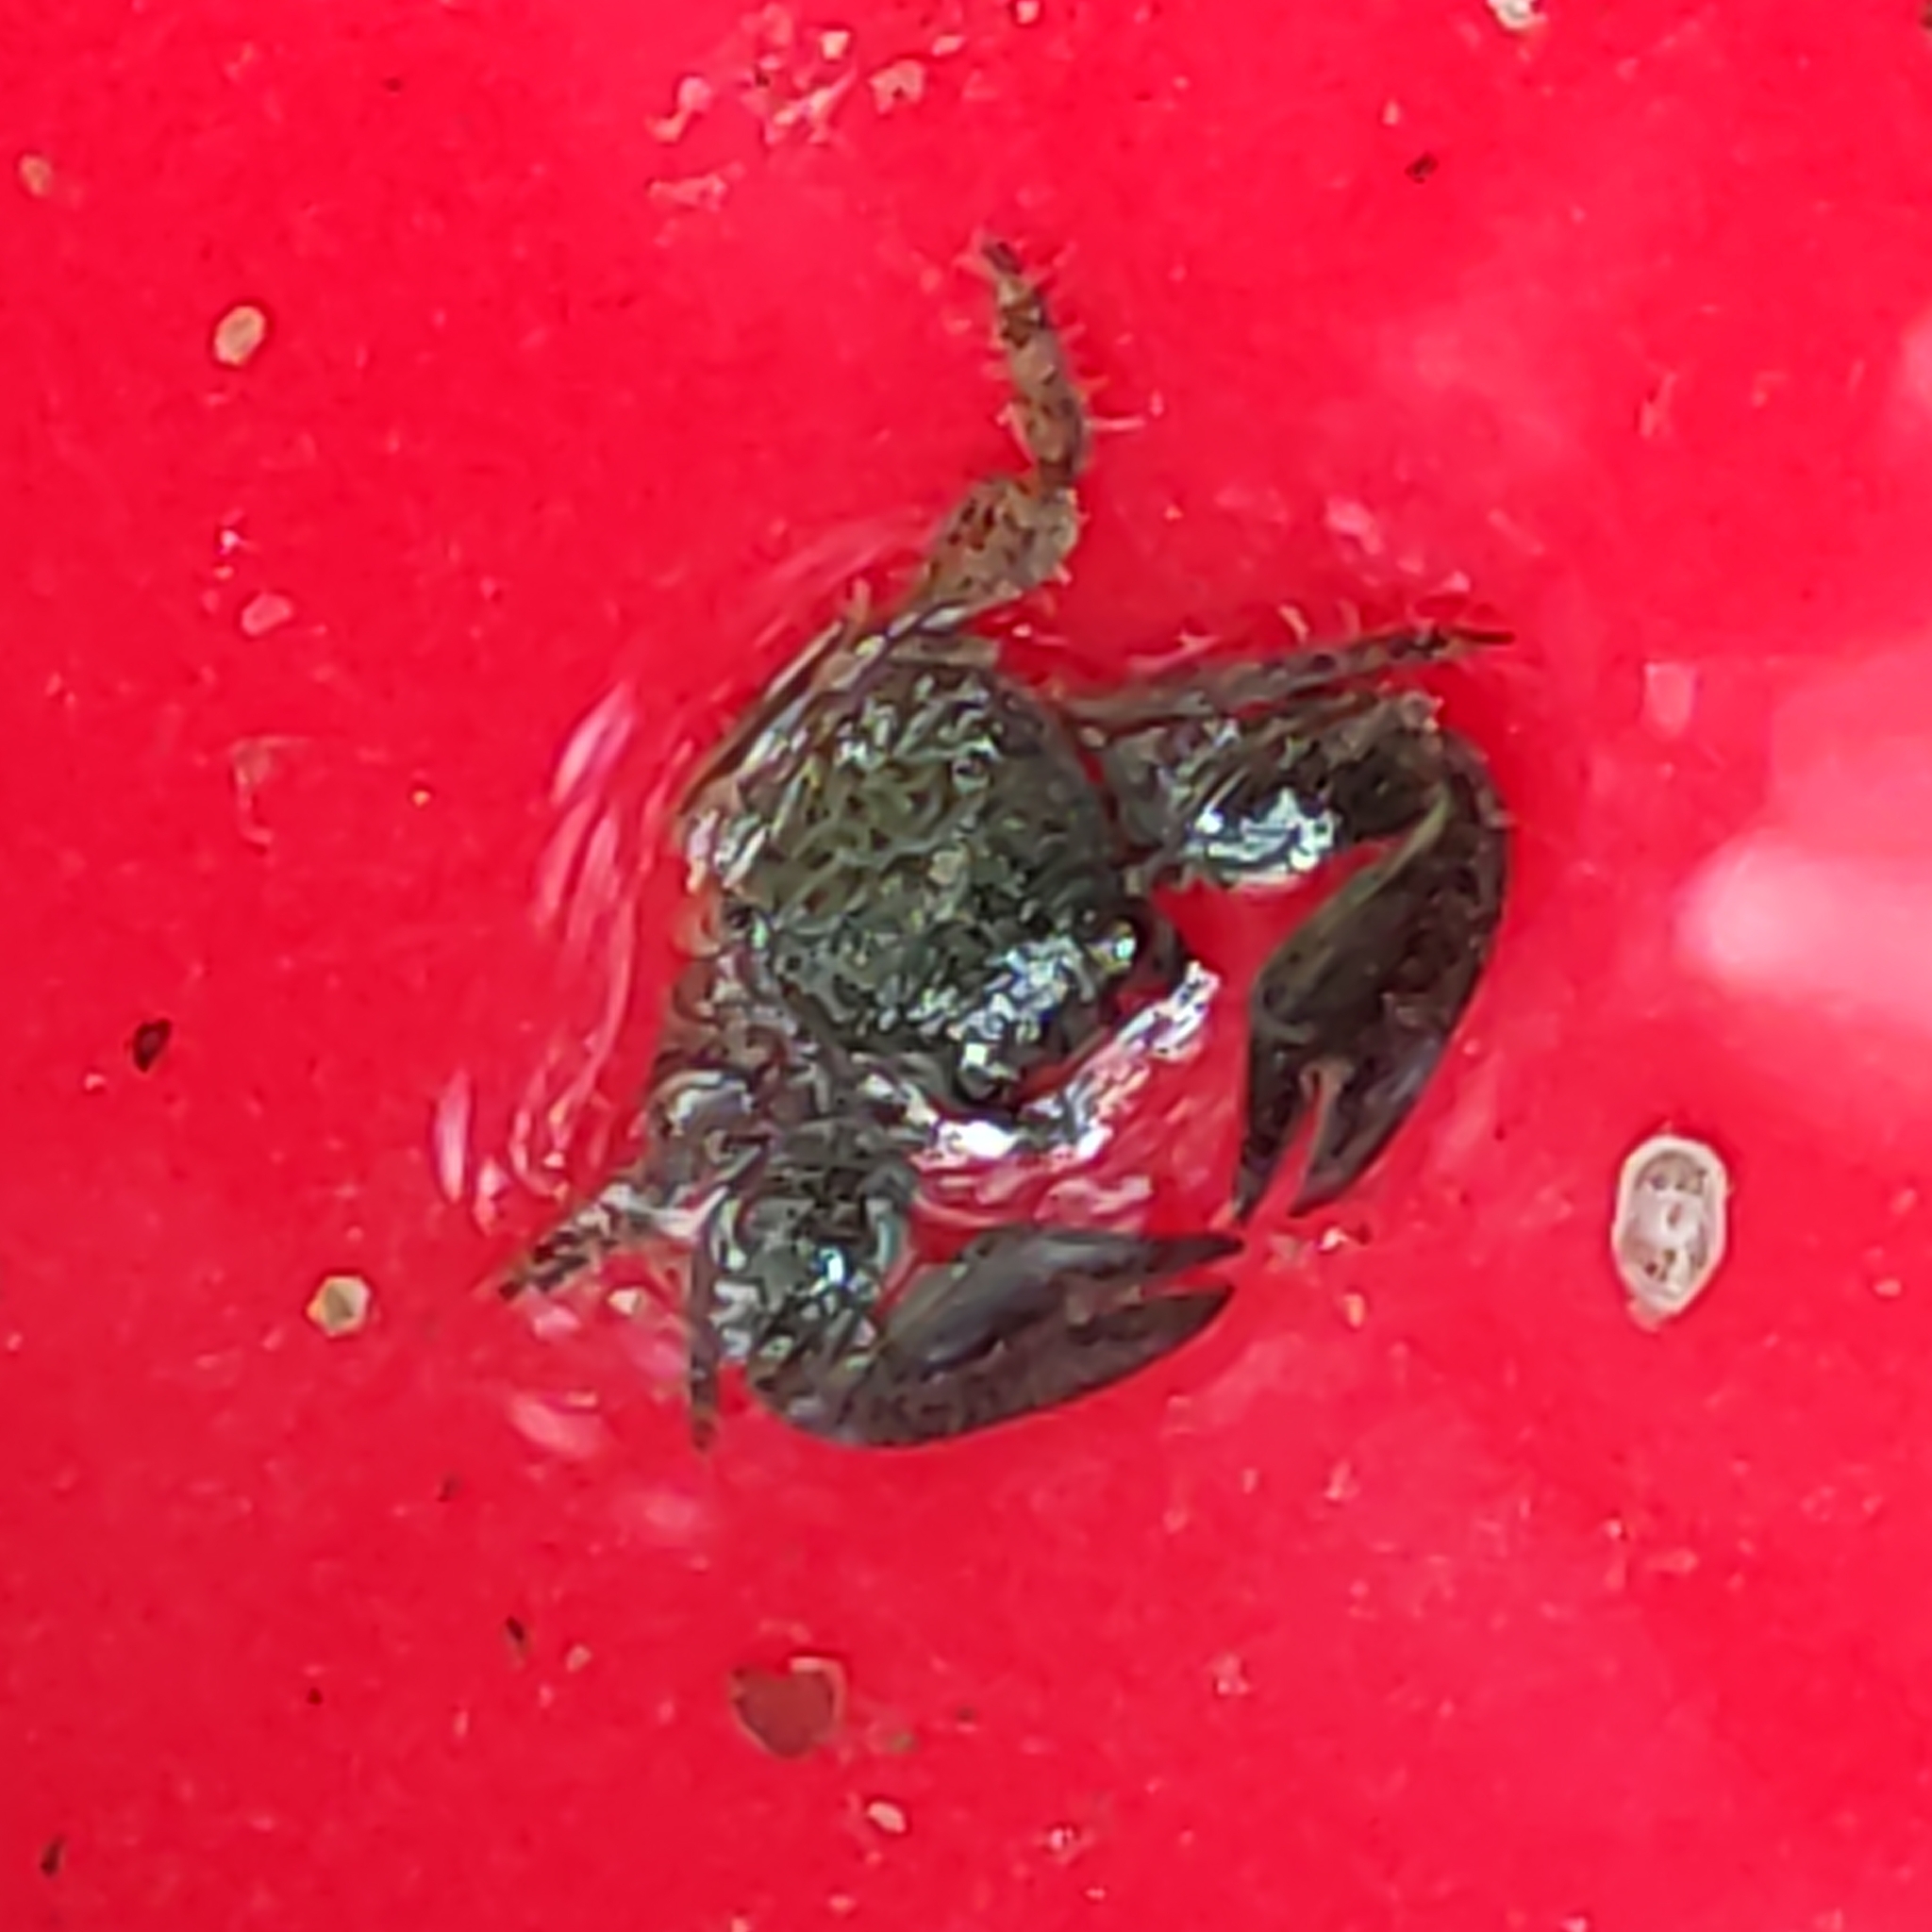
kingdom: Animalia
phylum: Arthropoda
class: Malacostraca
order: Decapoda
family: Porcellanidae
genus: Petrolisthes
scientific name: Petrolisthes elongatus
